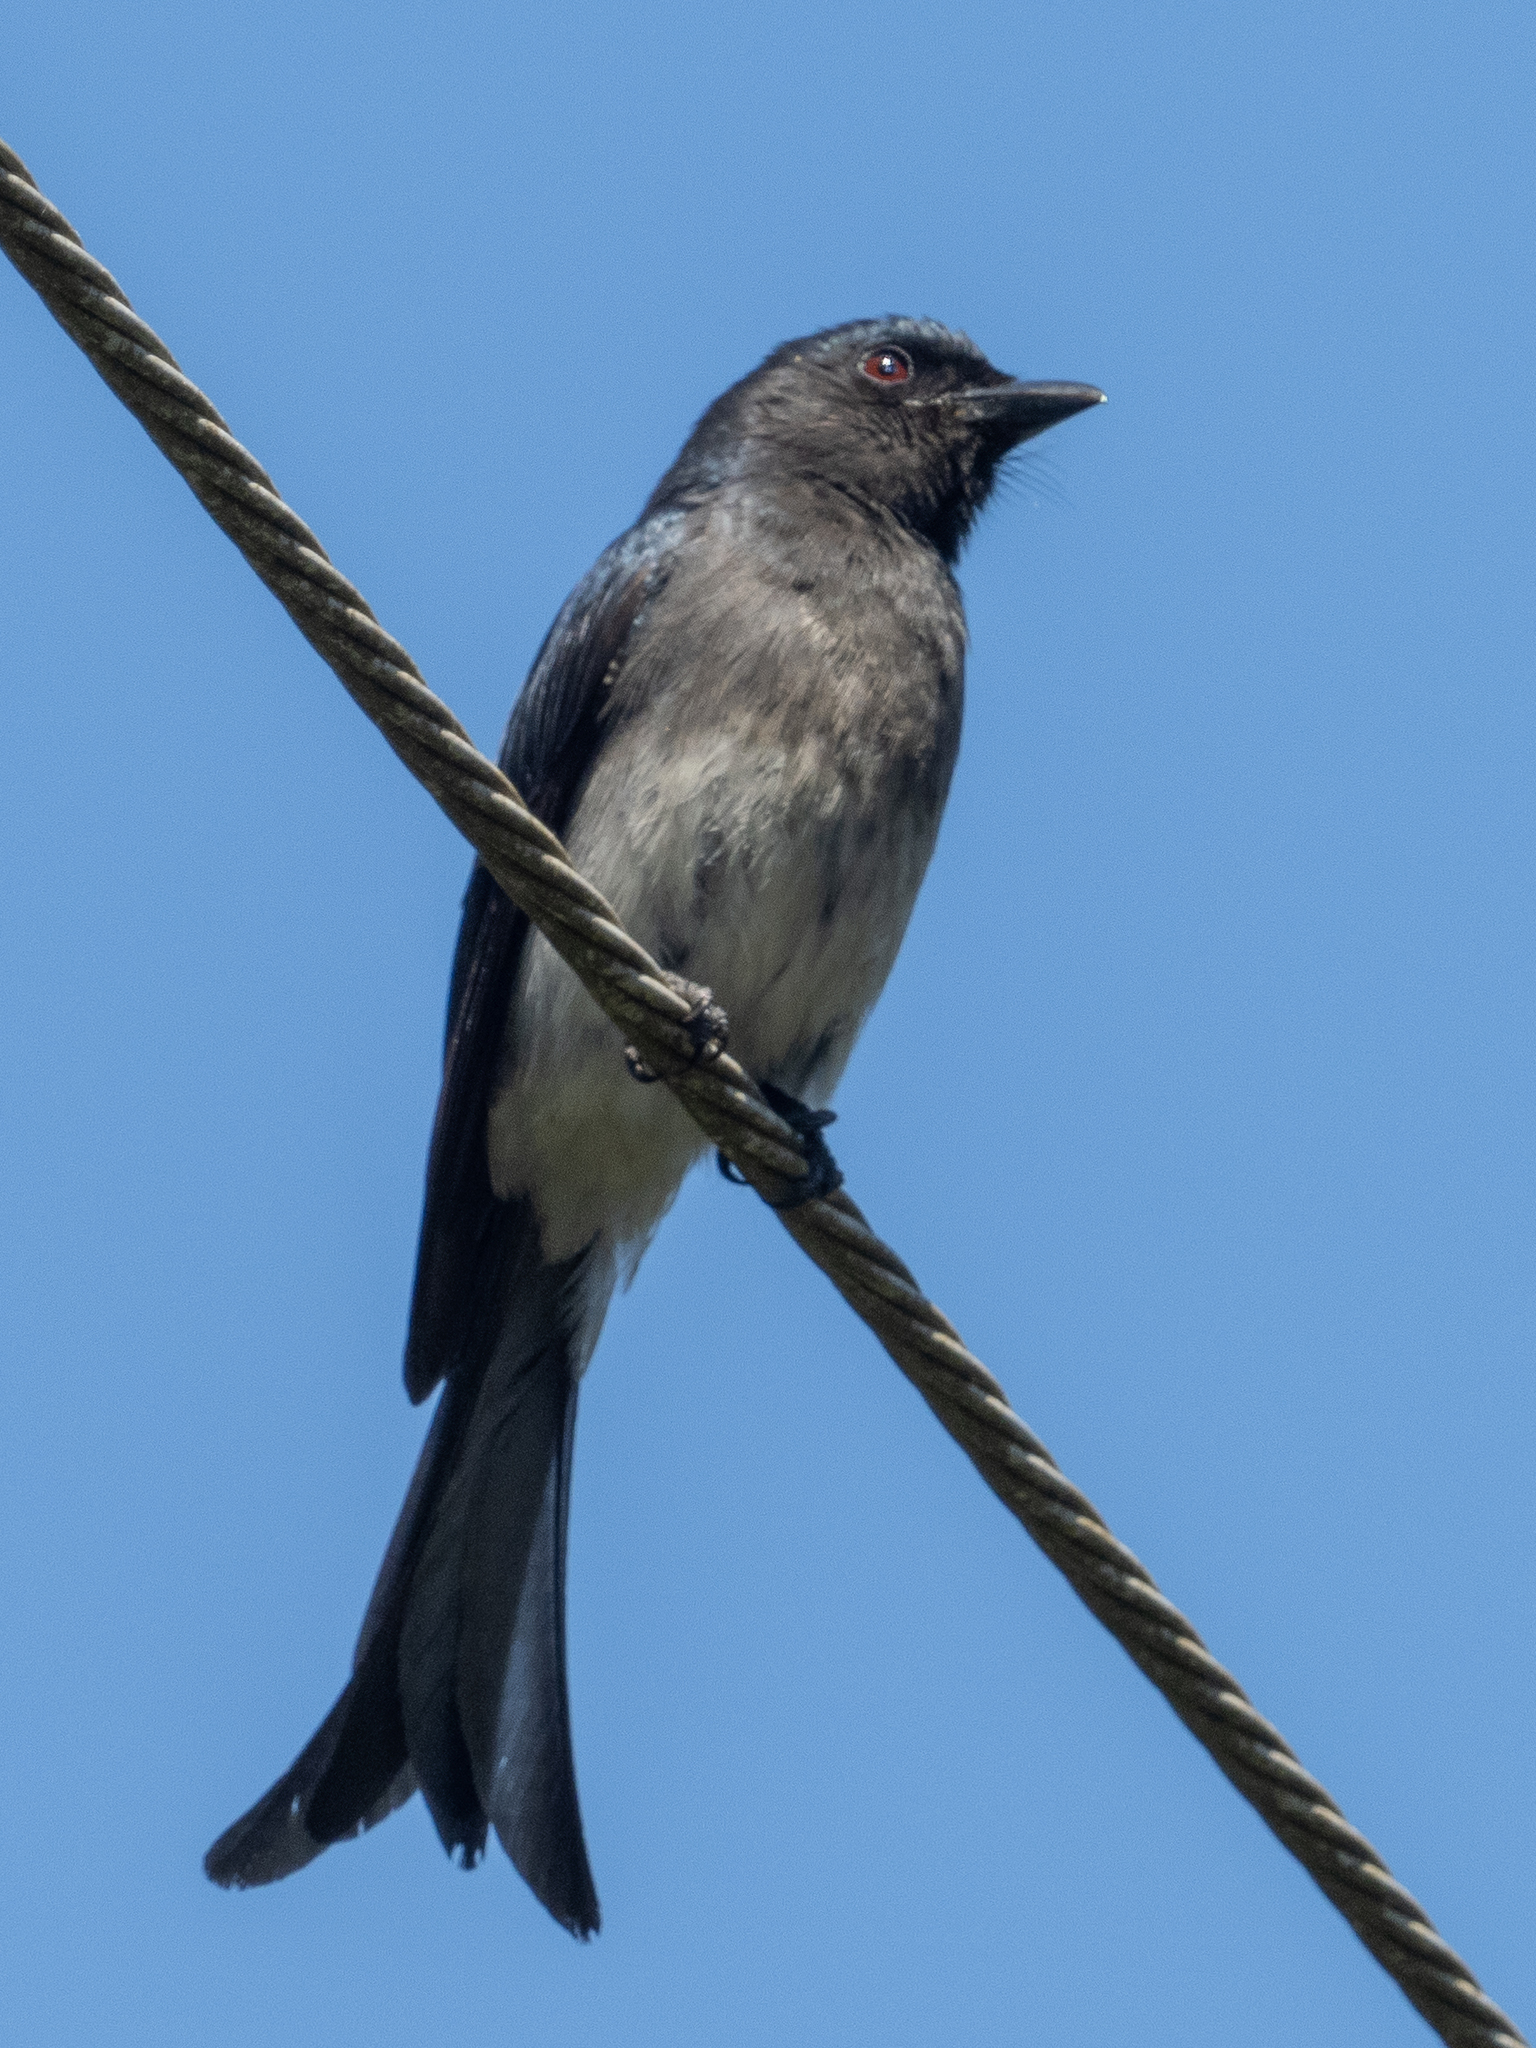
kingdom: Animalia
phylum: Chordata
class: Aves
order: Passeriformes
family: Dicruridae
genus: Dicrurus
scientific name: Dicrurus caerulescens
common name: White-bellied drongo
